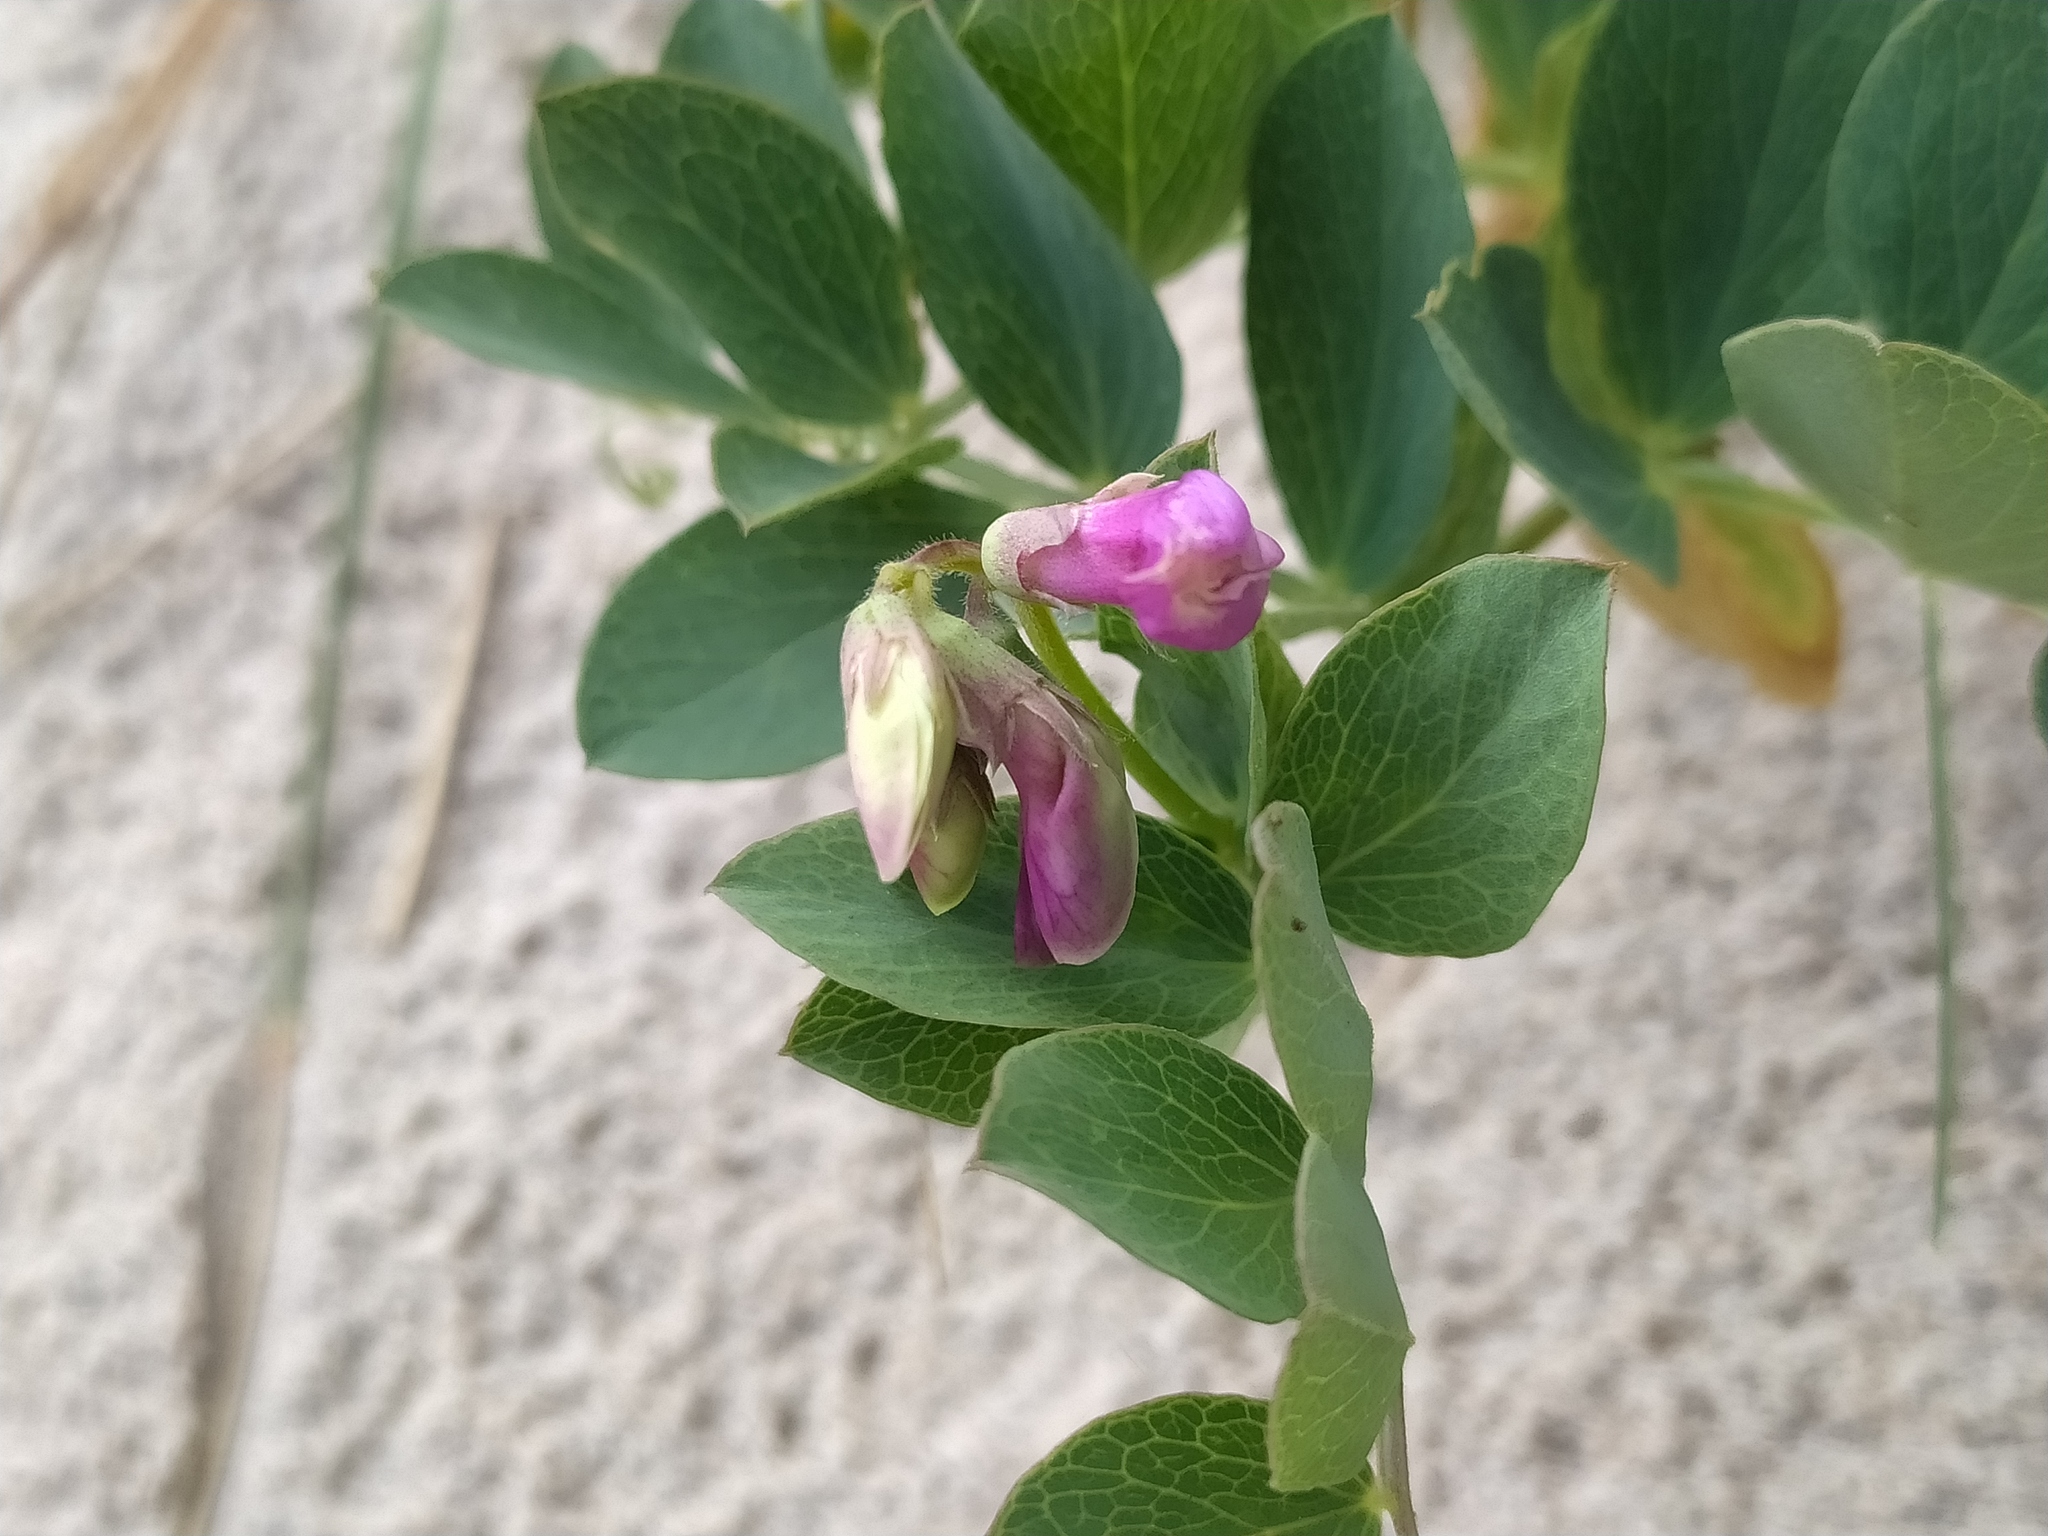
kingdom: Plantae
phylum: Tracheophyta
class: Magnoliopsida
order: Fabales
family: Fabaceae
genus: Lathyrus
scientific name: Lathyrus japonicus
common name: Sea pea
